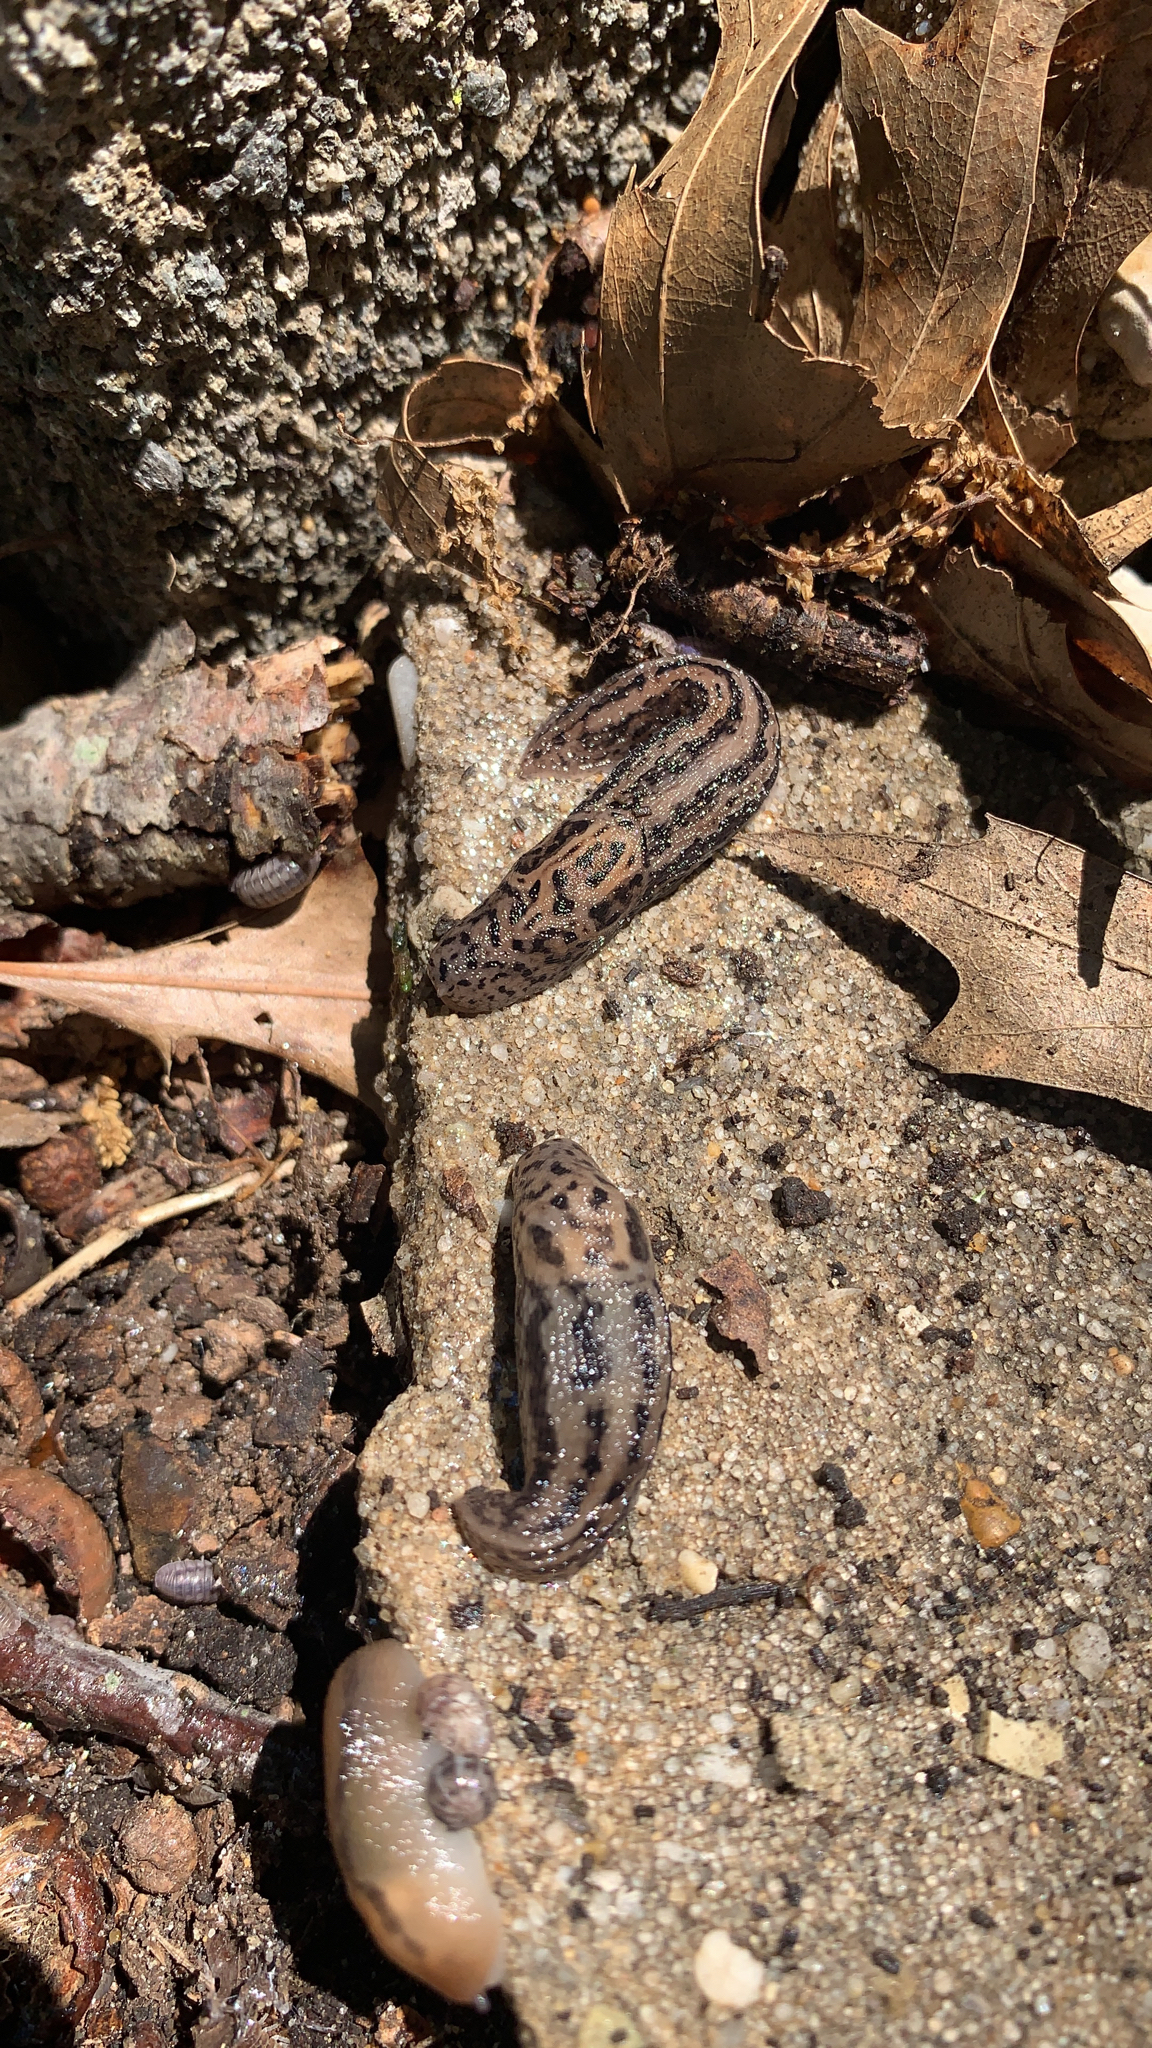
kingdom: Animalia
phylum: Mollusca
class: Gastropoda
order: Stylommatophora
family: Limacidae
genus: Limax
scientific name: Limax maximus
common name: Great grey slug
